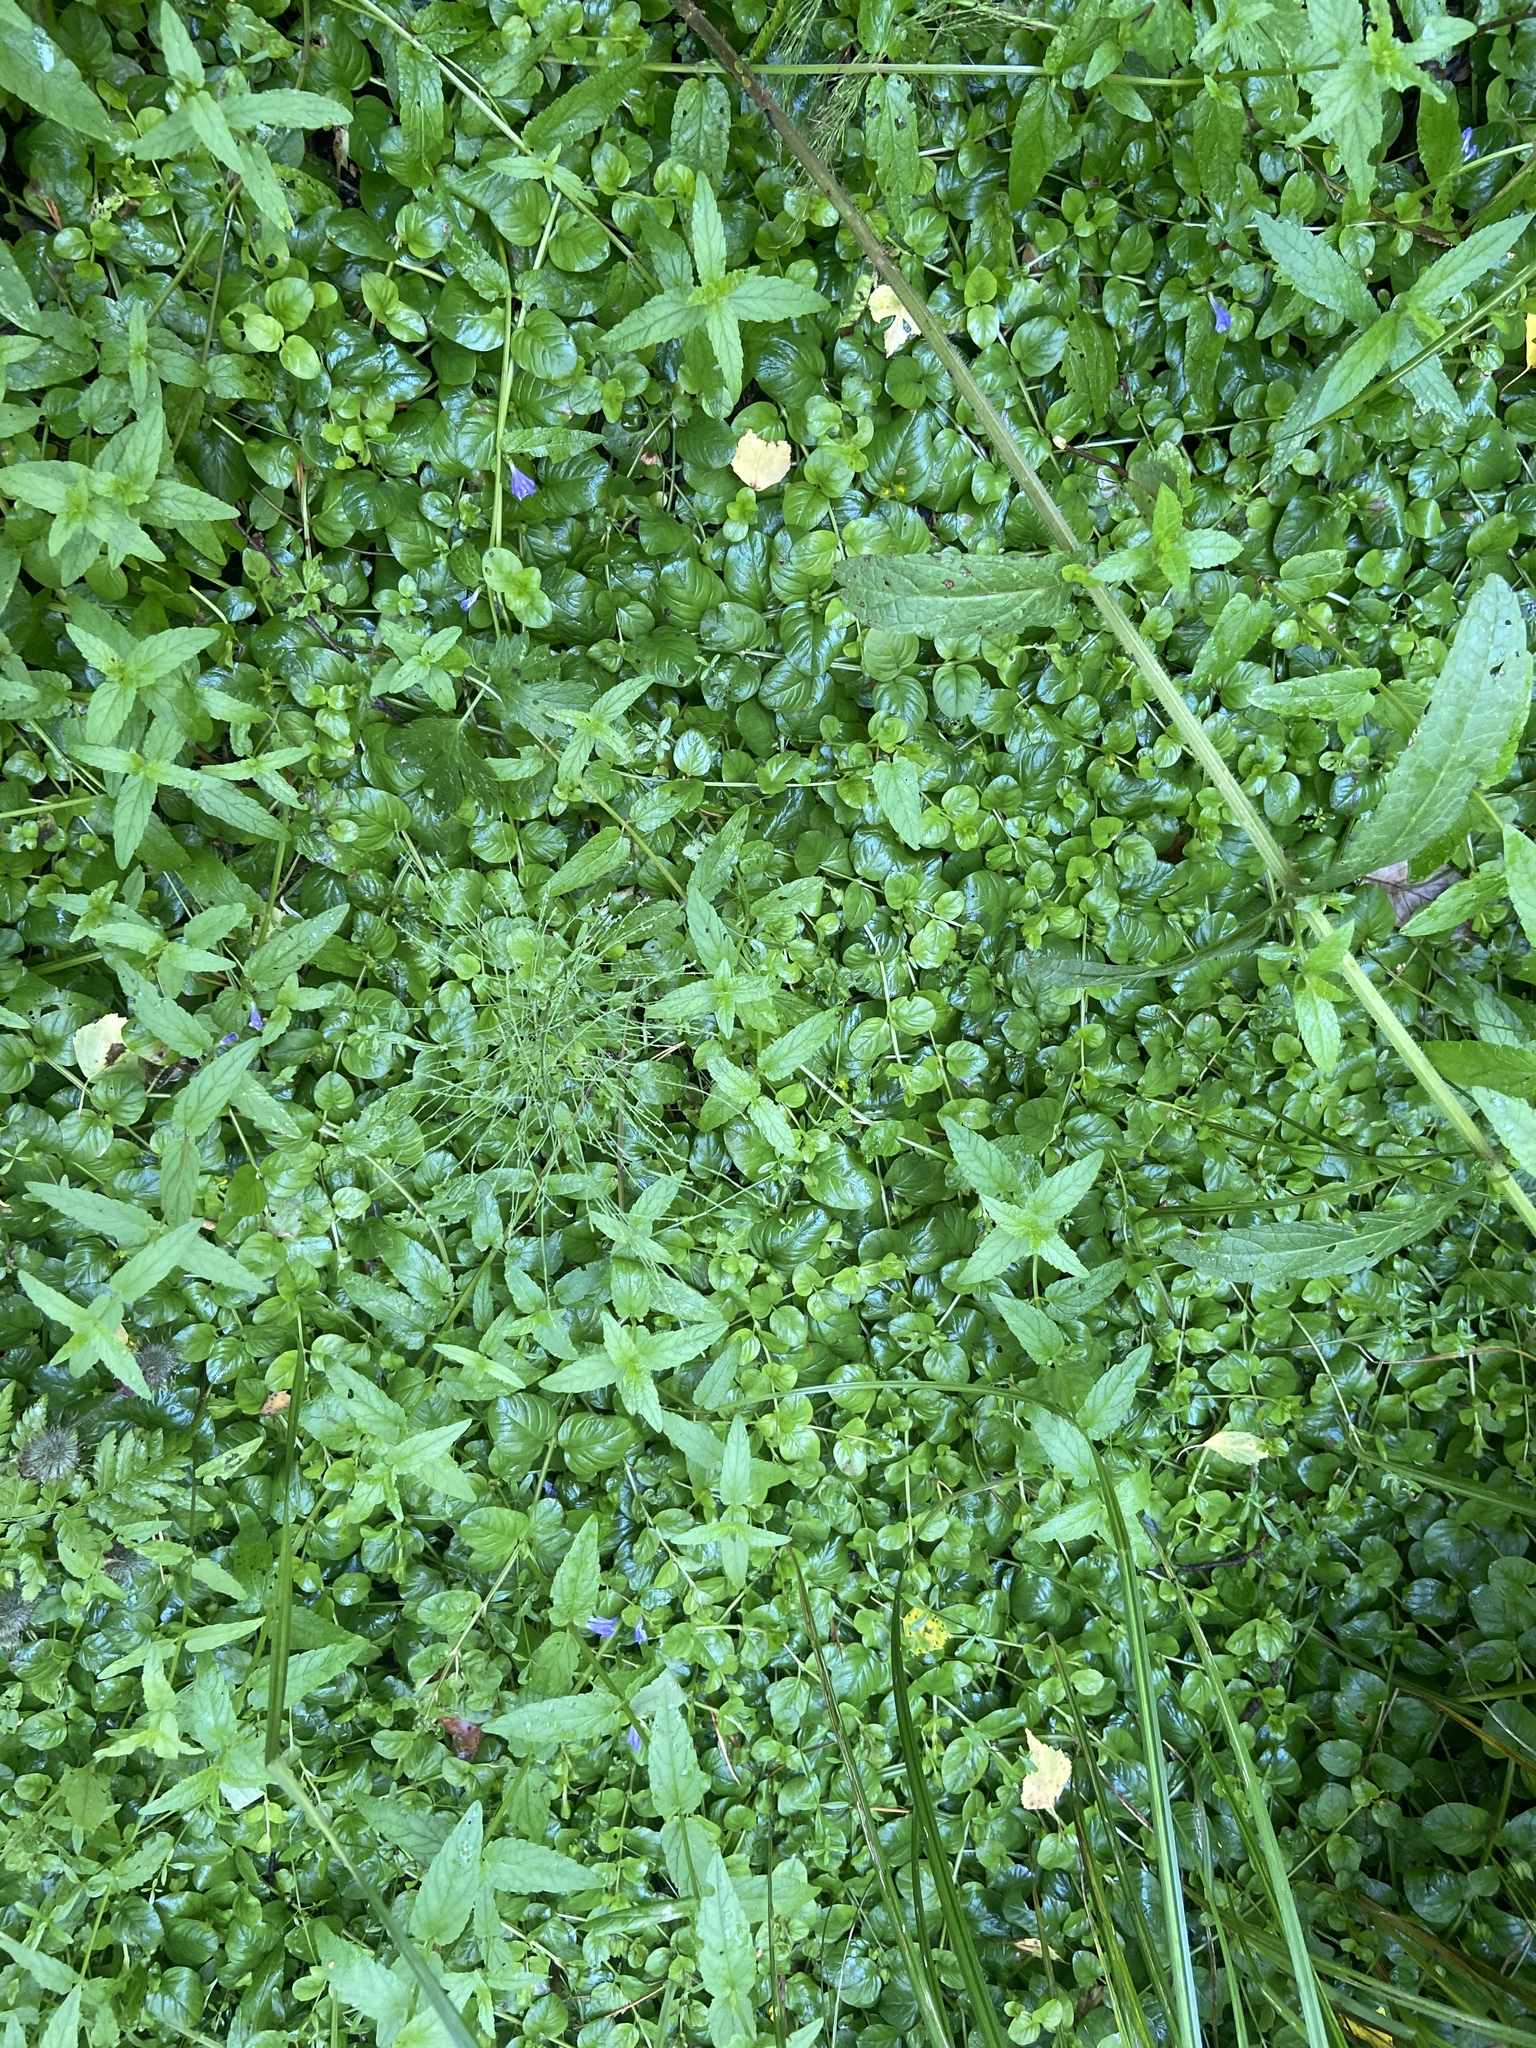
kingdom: Plantae
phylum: Tracheophyta
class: Magnoliopsida
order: Ericales
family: Primulaceae
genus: Lysimachia
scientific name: Lysimachia nummularia
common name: Moneywort
